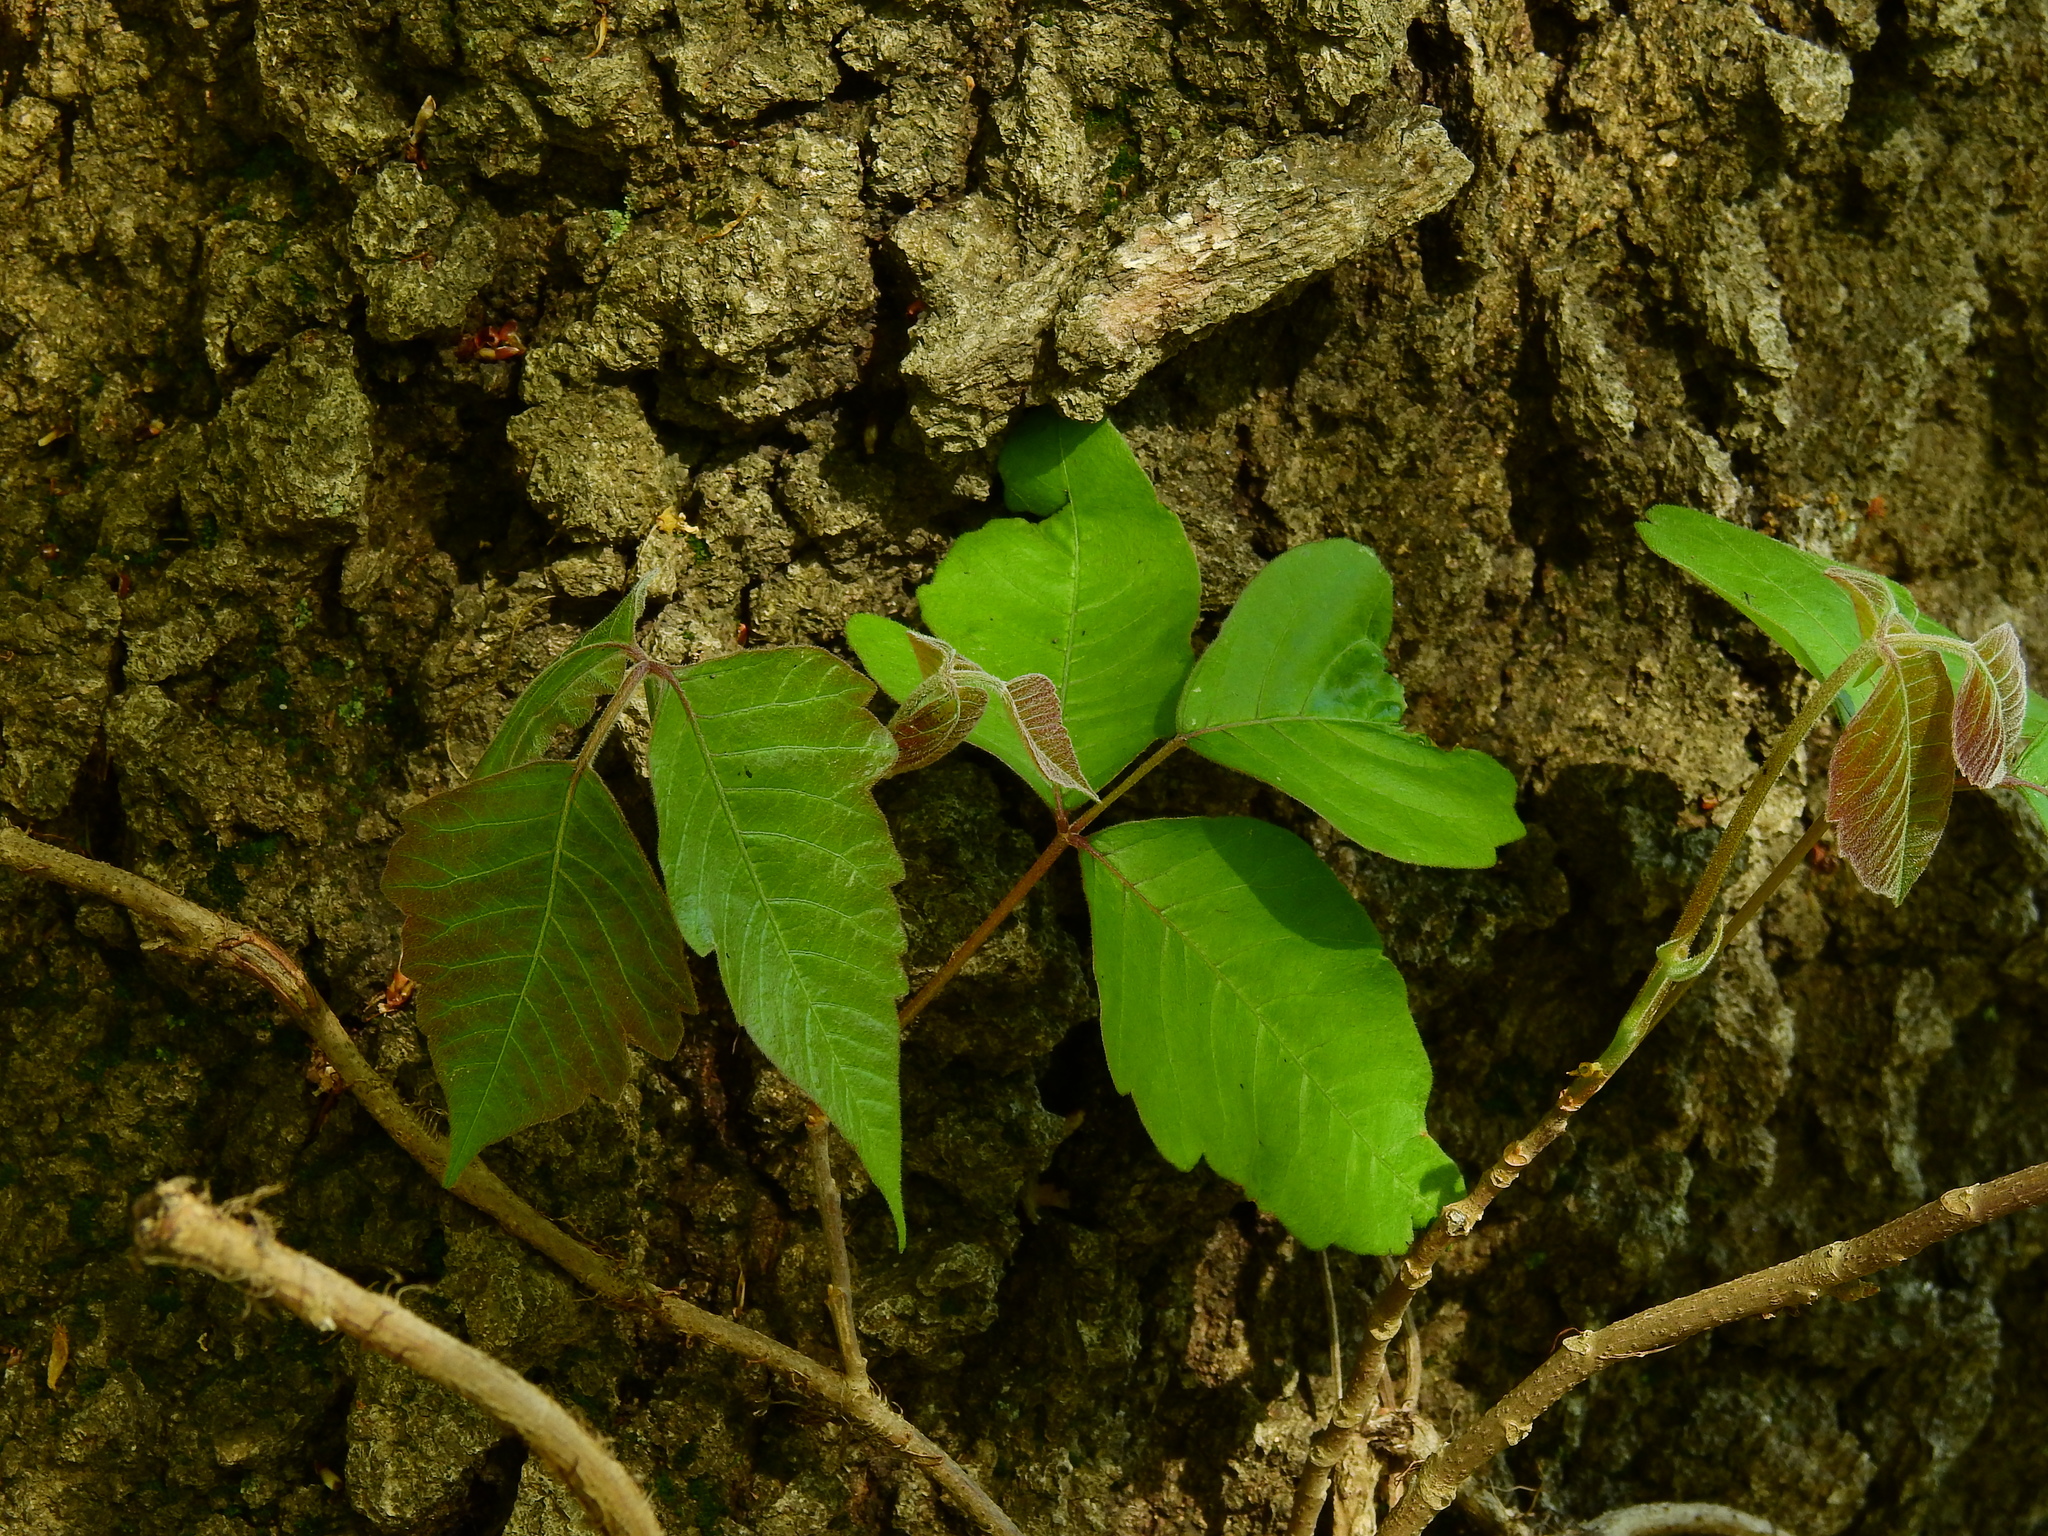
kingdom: Plantae
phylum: Tracheophyta
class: Magnoliopsida
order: Sapindales
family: Anacardiaceae
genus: Toxicodendron
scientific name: Toxicodendron radicans
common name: Poison ivy
